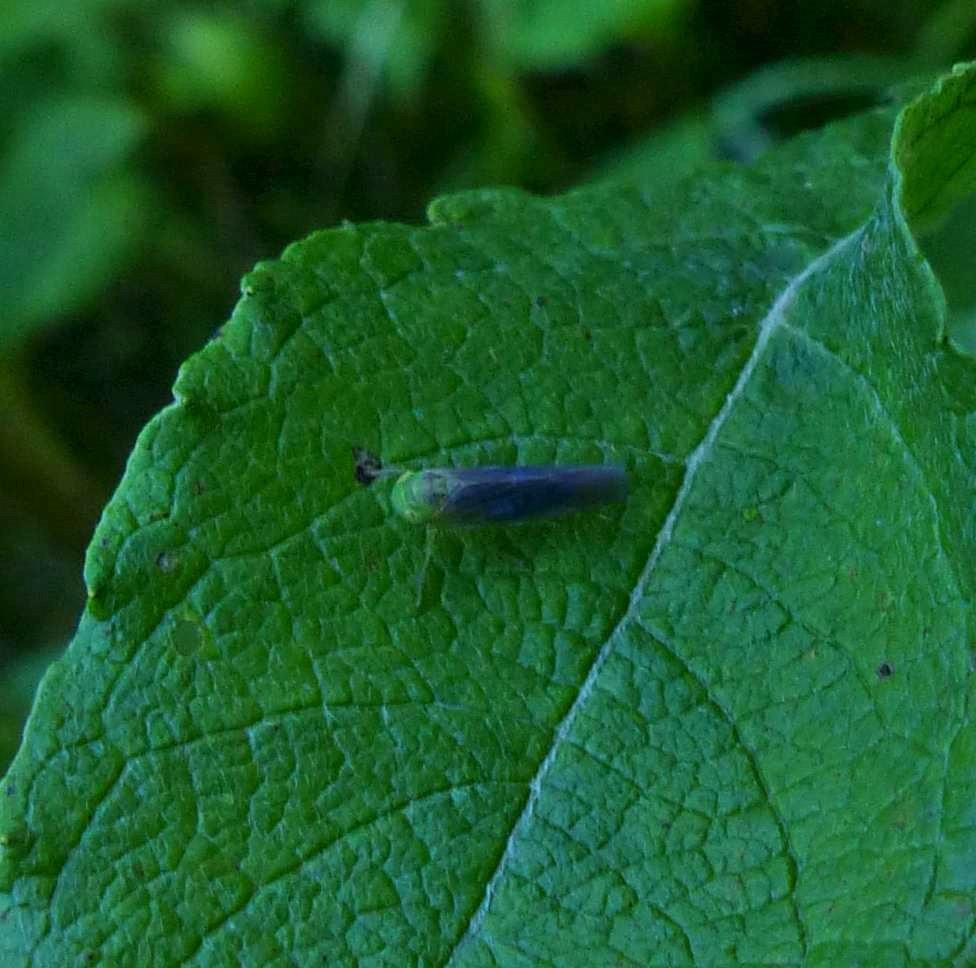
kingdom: Animalia
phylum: Arthropoda
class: Insecta
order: Hemiptera
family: Cicadellidae
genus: Chlorotettix
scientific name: Chlorotettix tergatus
